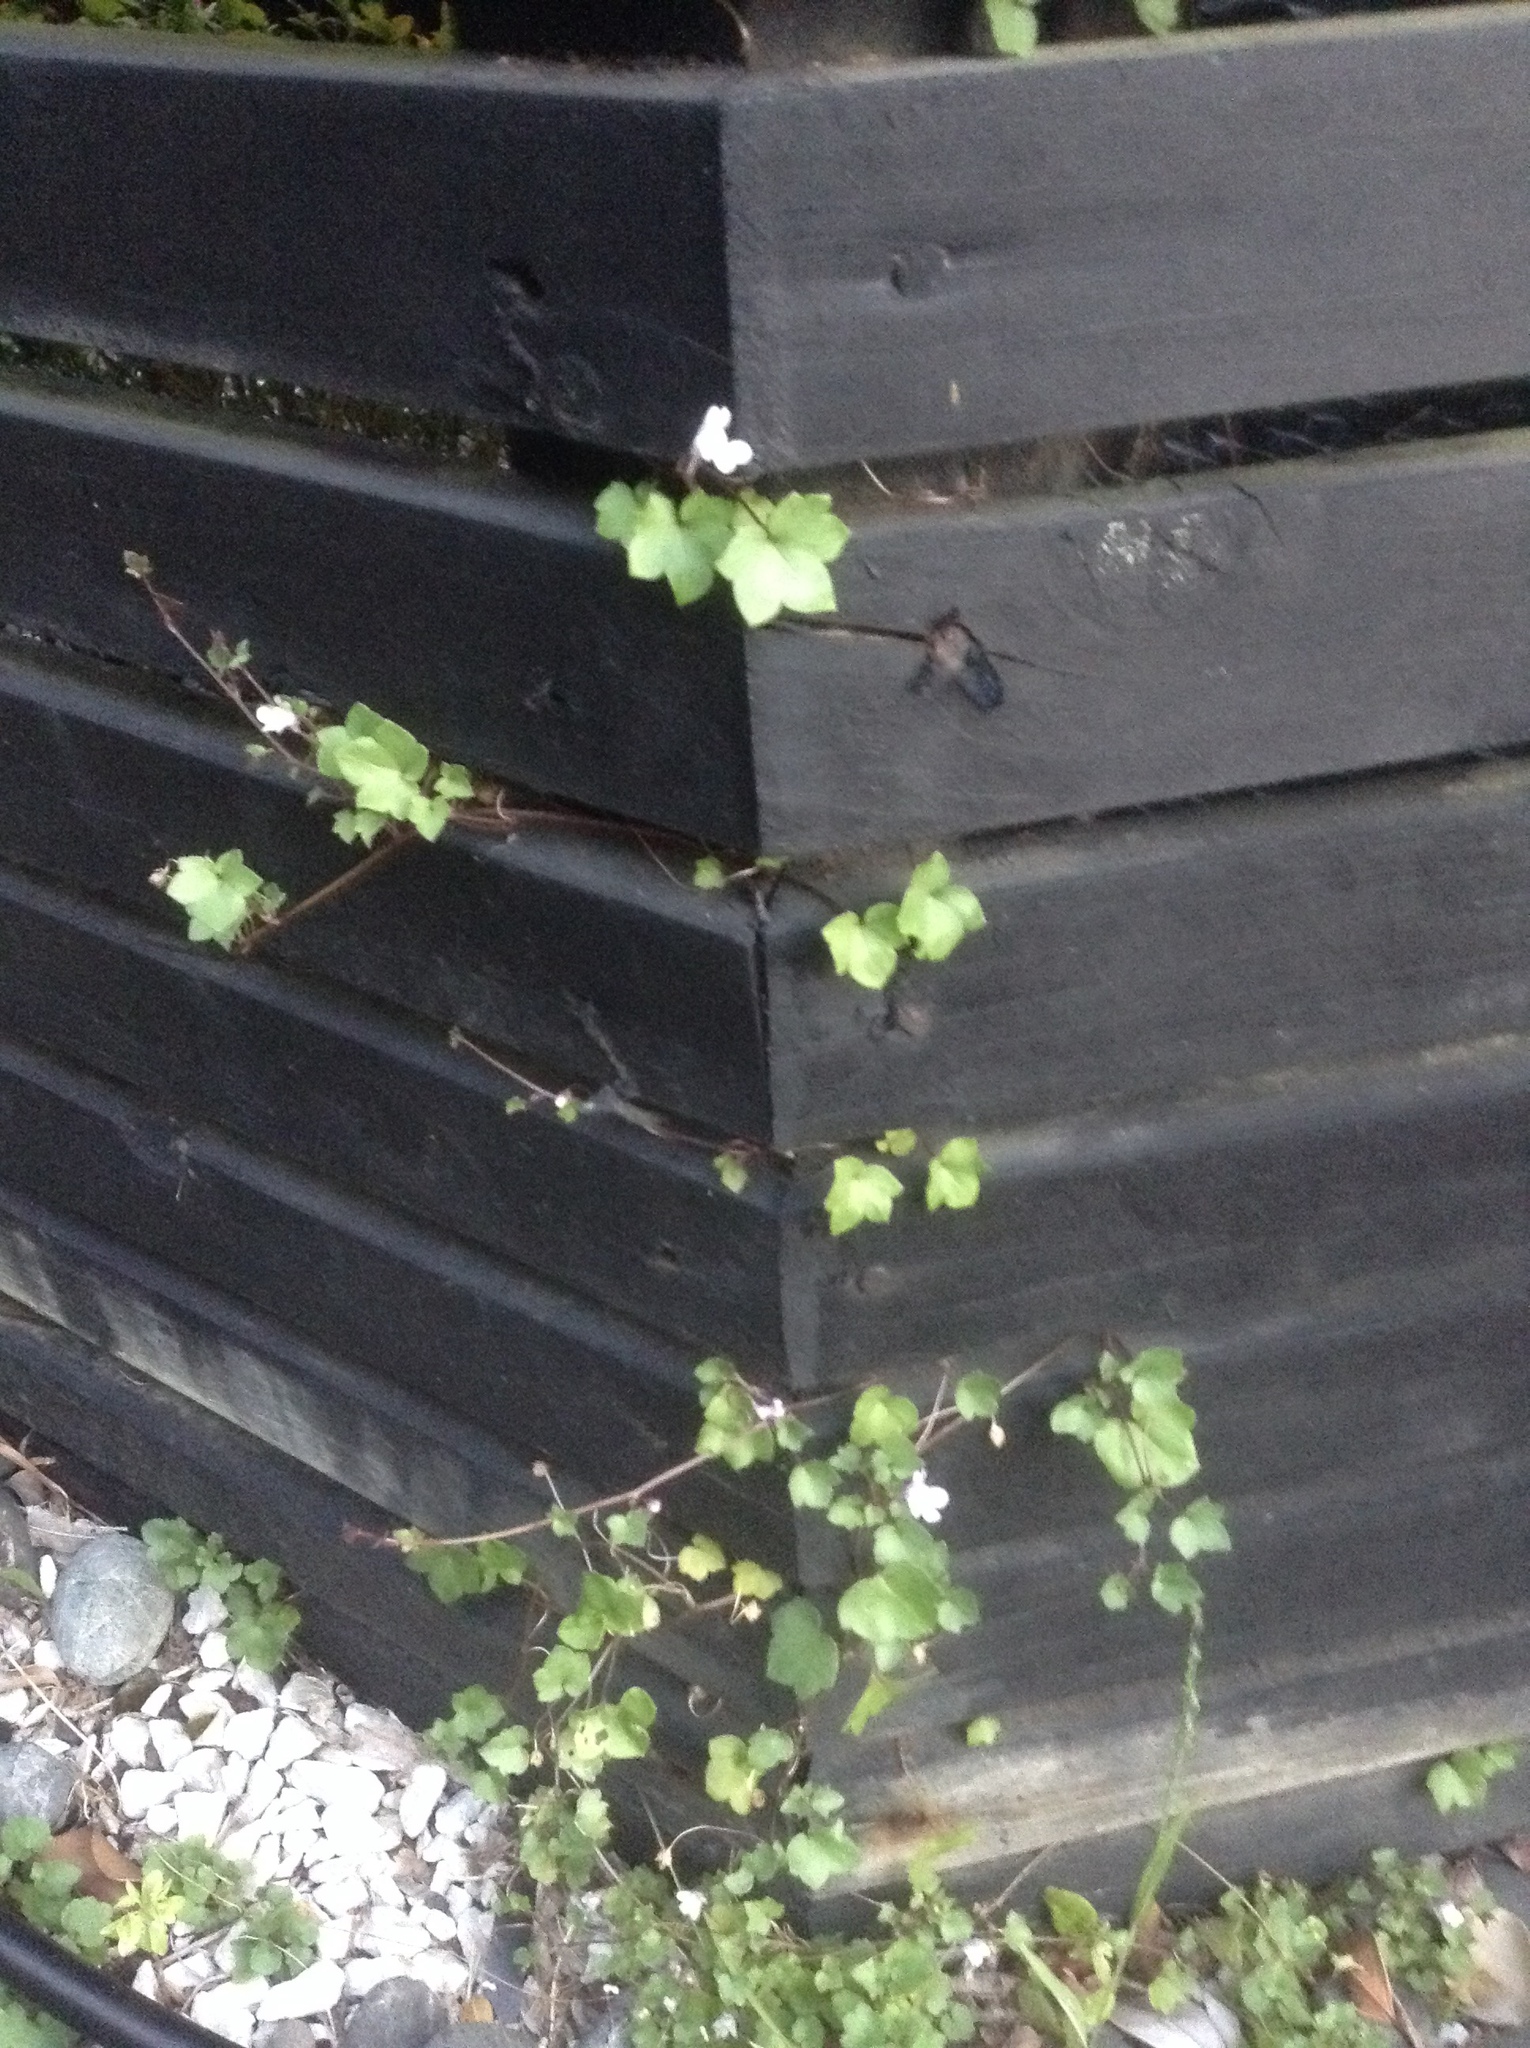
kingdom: Plantae
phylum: Tracheophyta
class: Magnoliopsida
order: Lamiales
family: Plantaginaceae
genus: Cymbalaria
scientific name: Cymbalaria muralis
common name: Ivy-leaved toadflax
